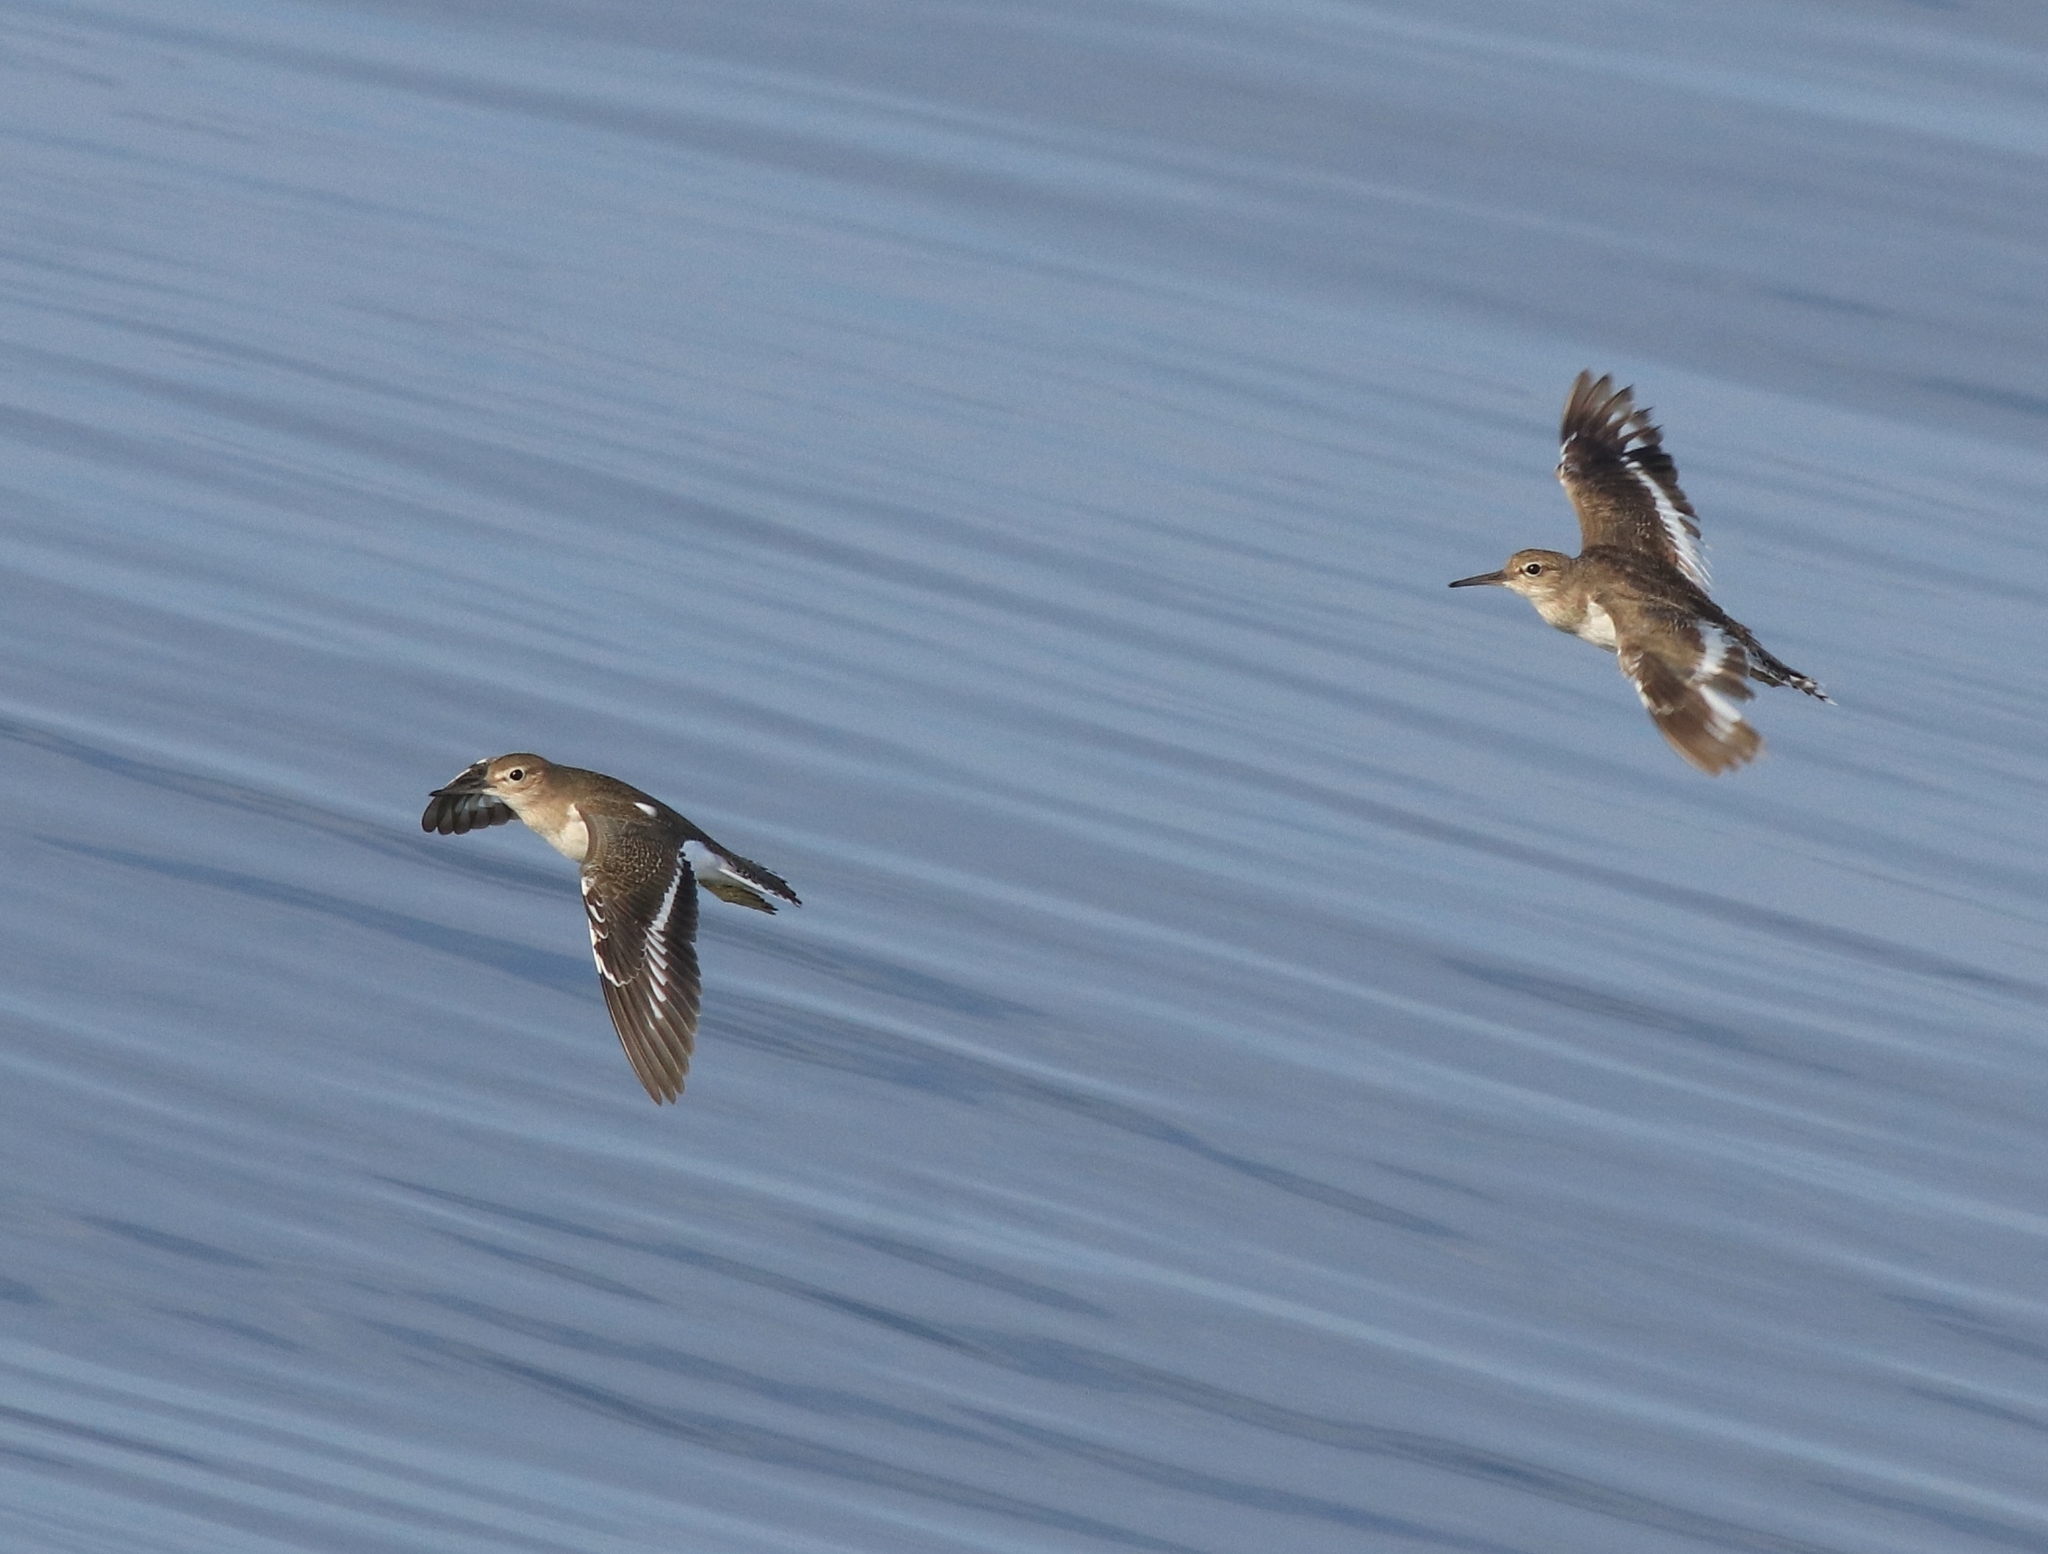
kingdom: Animalia
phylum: Chordata
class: Aves
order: Charadriiformes
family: Scolopacidae
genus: Actitis
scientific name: Actitis hypoleucos
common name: Common sandpiper
